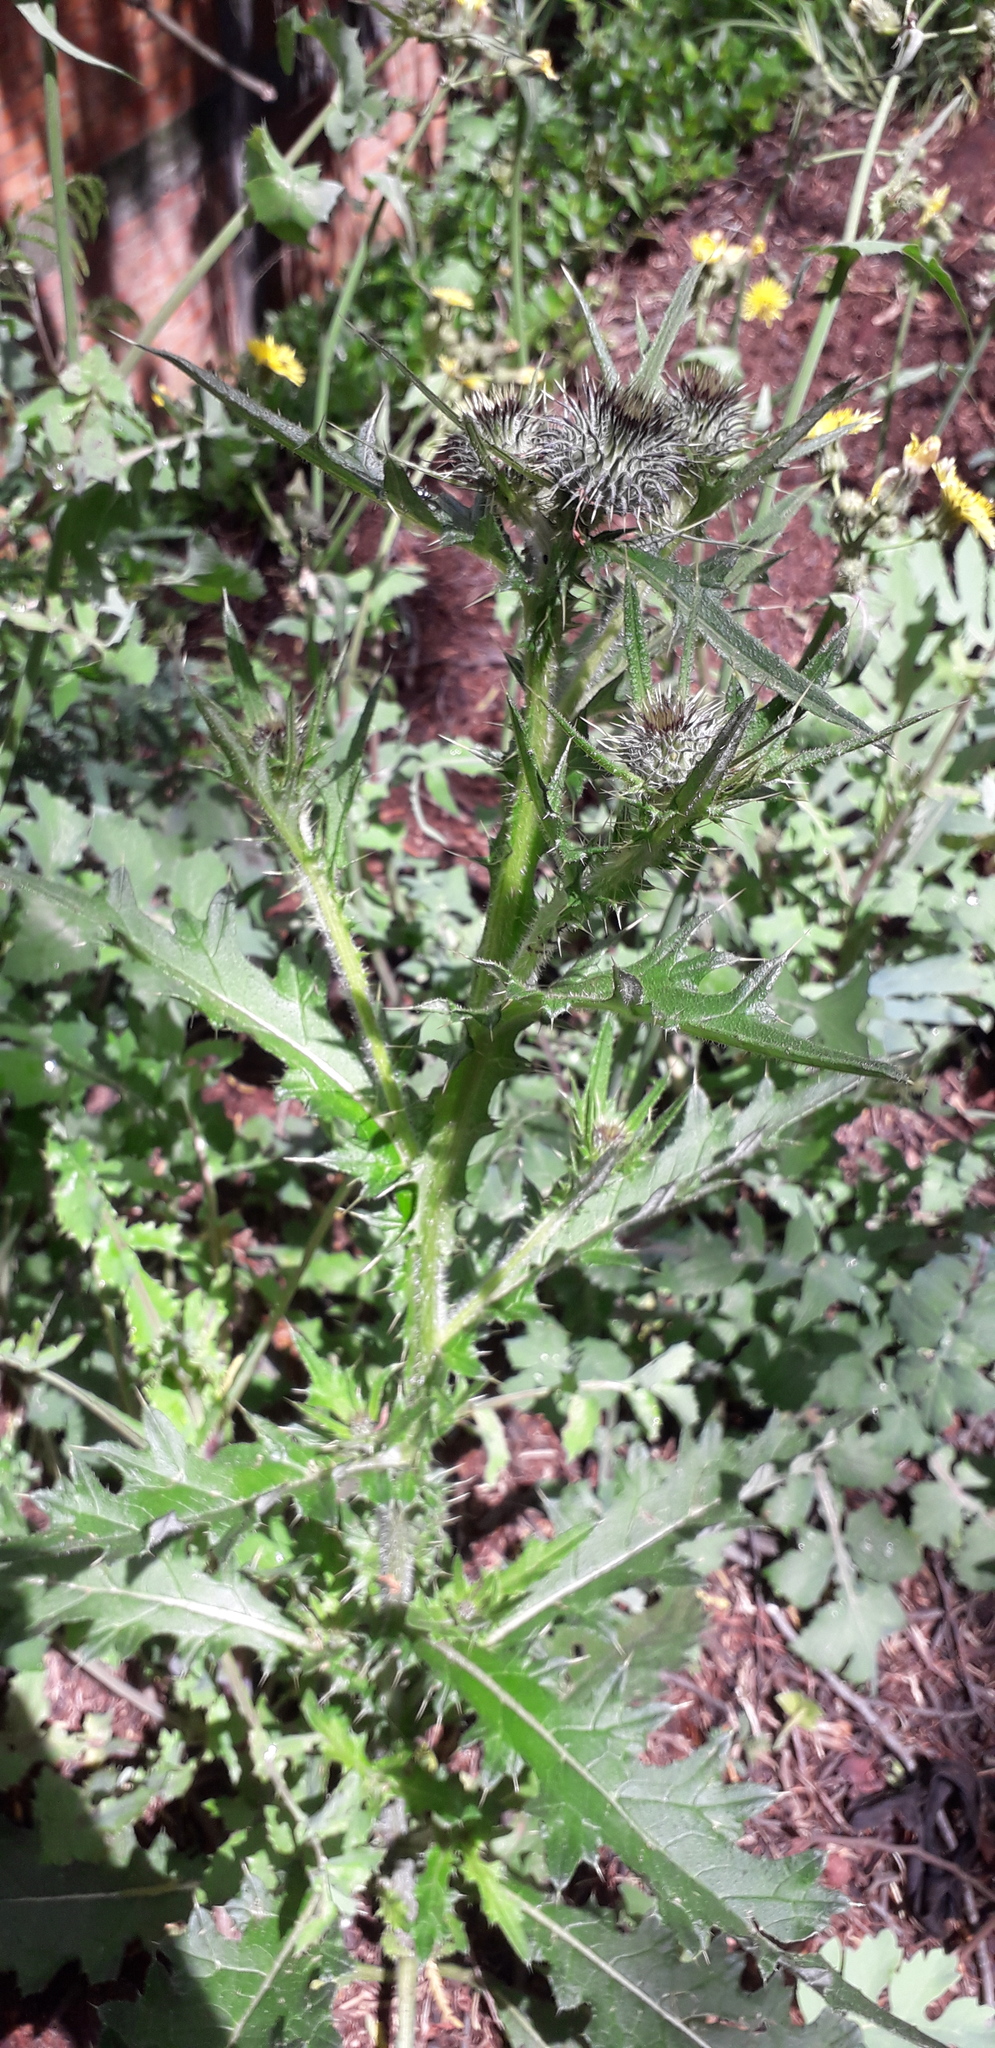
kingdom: Plantae
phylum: Tracheophyta
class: Magnoliopsida
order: Asterales
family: Asteraceae
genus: Cirsium
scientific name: Cirsium vulgare
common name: Bull thistle
